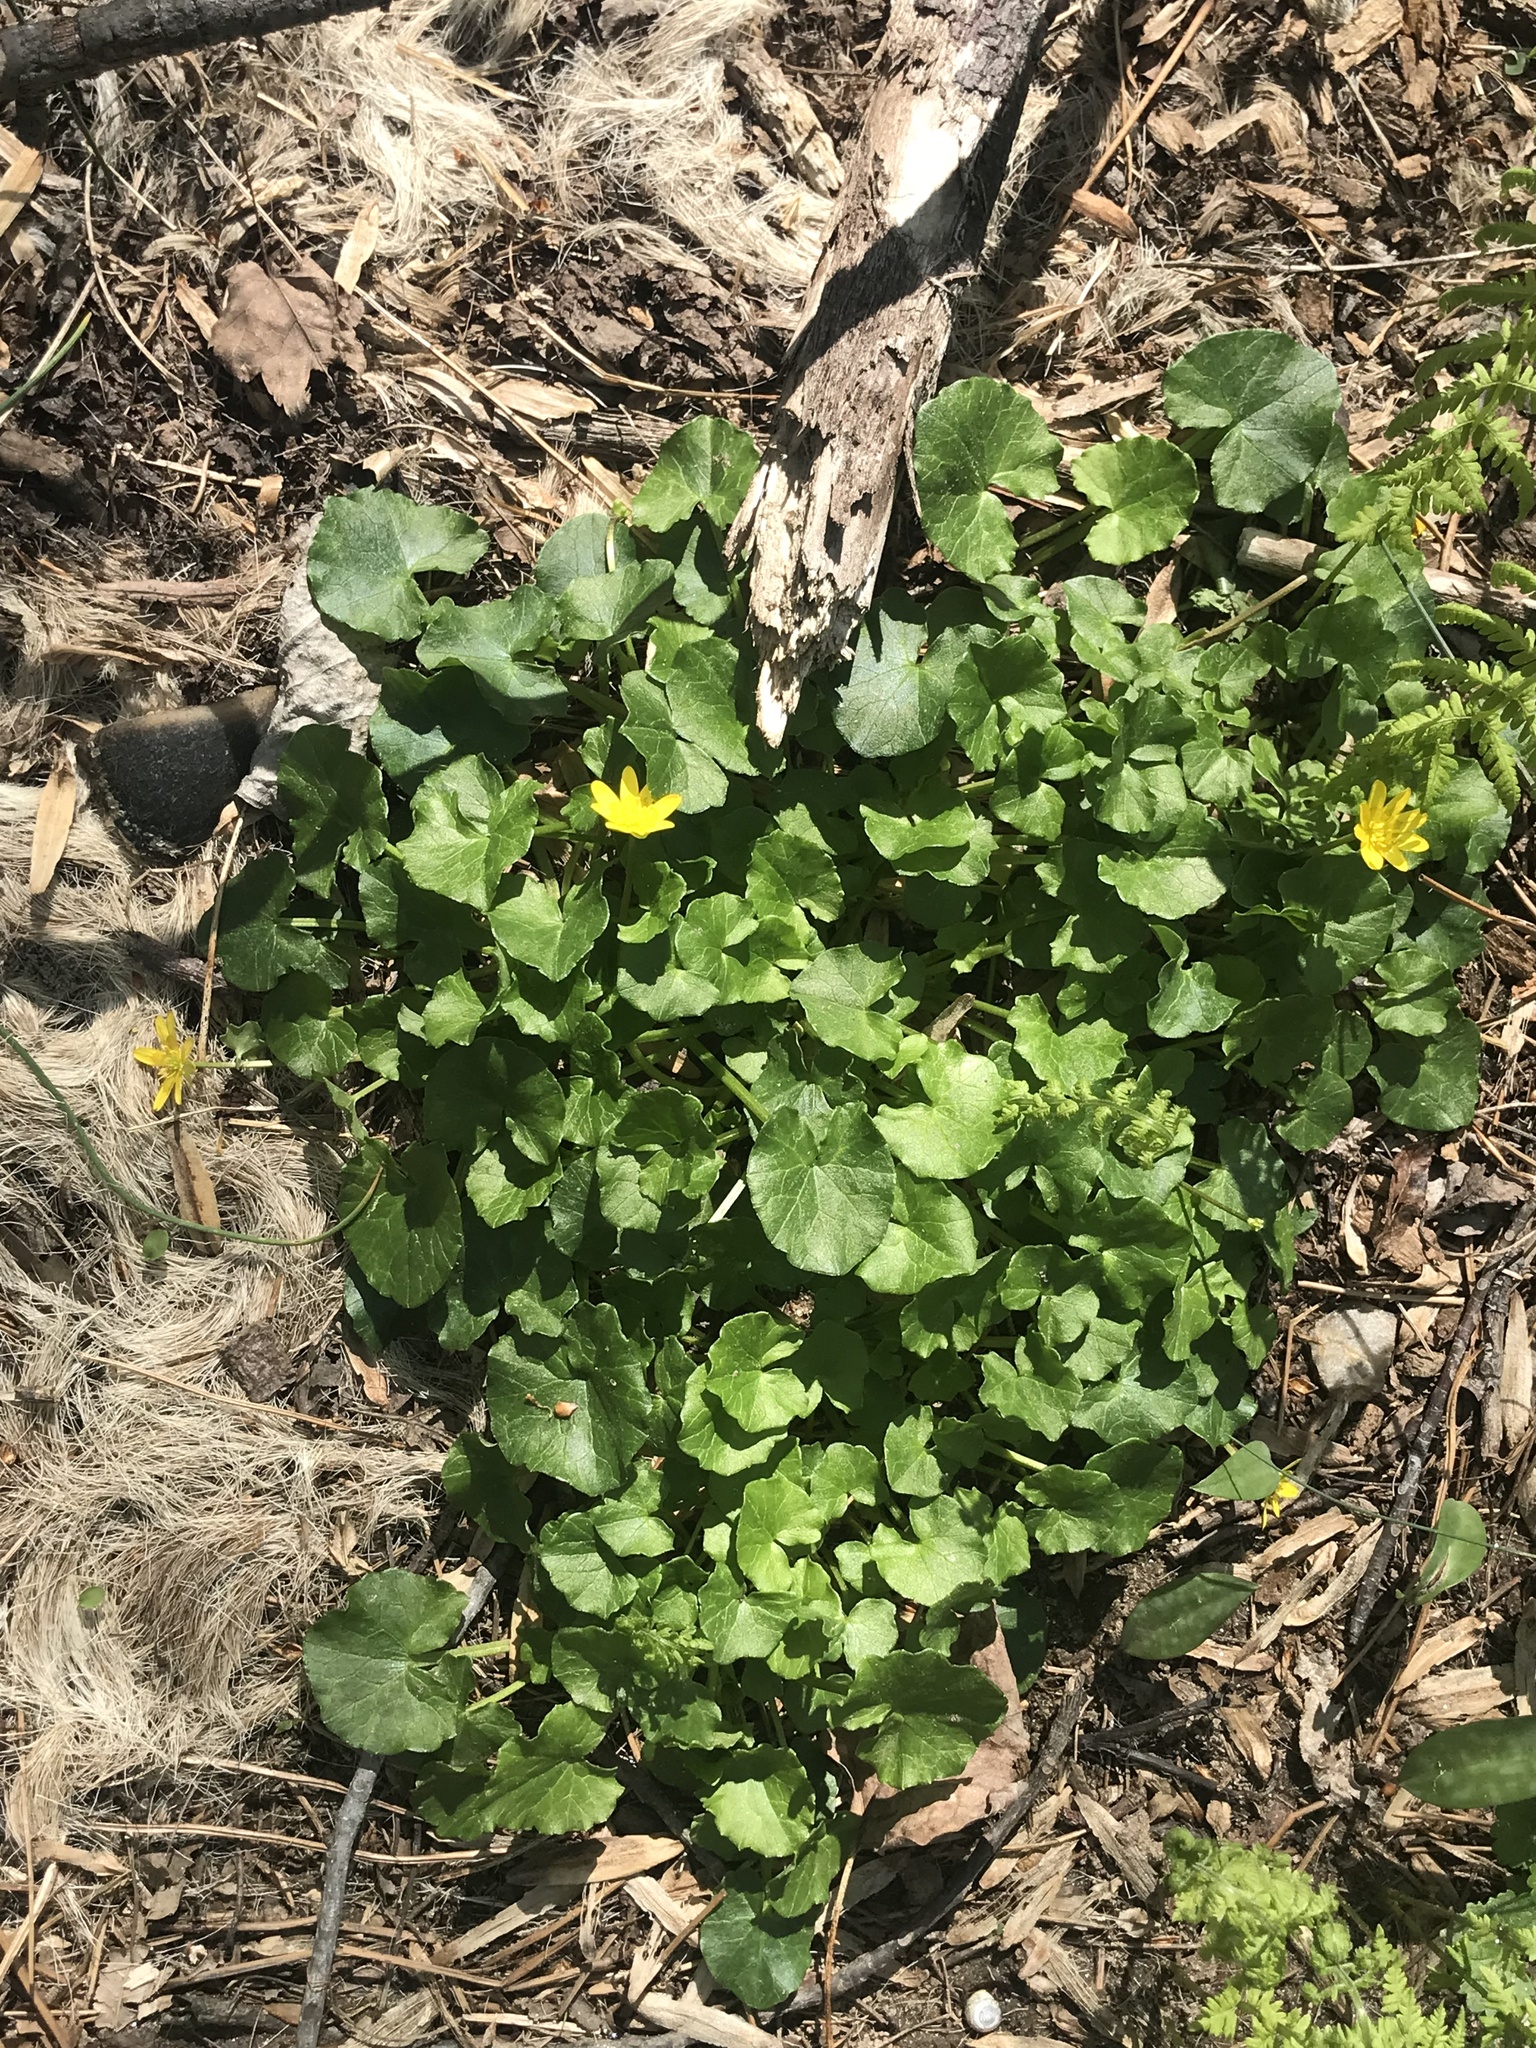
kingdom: Plantae
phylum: Tracheophyta
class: Magnoliopsida
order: Ranunculales
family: Ranunculaceae
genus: Ficaria
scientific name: Ficaria verna
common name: Lesser celandine
